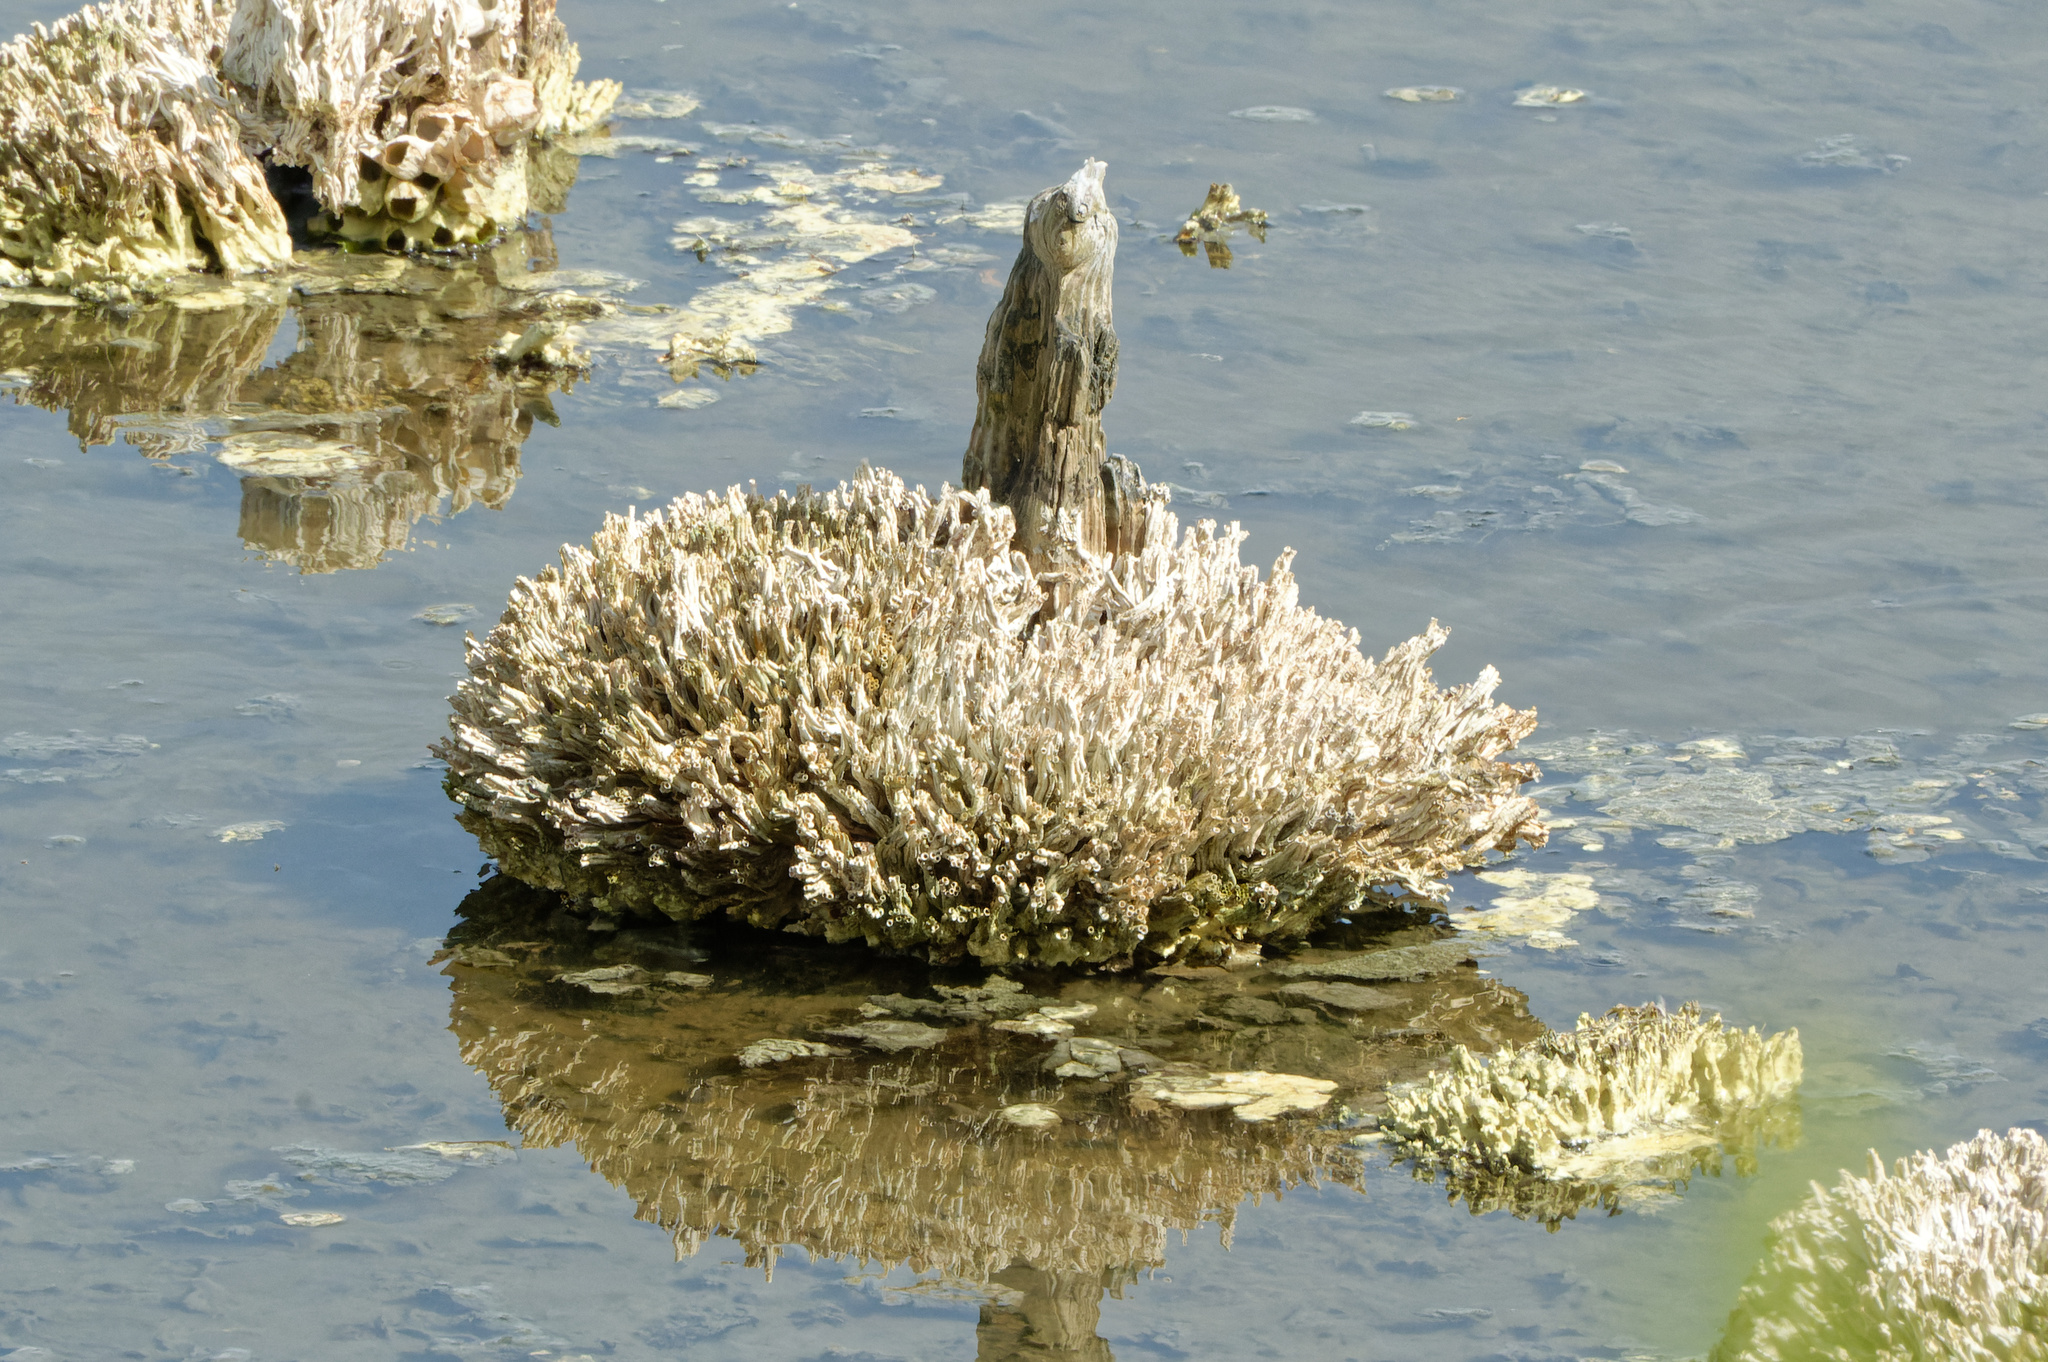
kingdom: Animalia
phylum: Annelida
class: Polychaeta
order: Sabellida
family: Serpulidae
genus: Ficopomatus
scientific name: Ficopomatus enigmaticus
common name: Australian tubeworm
